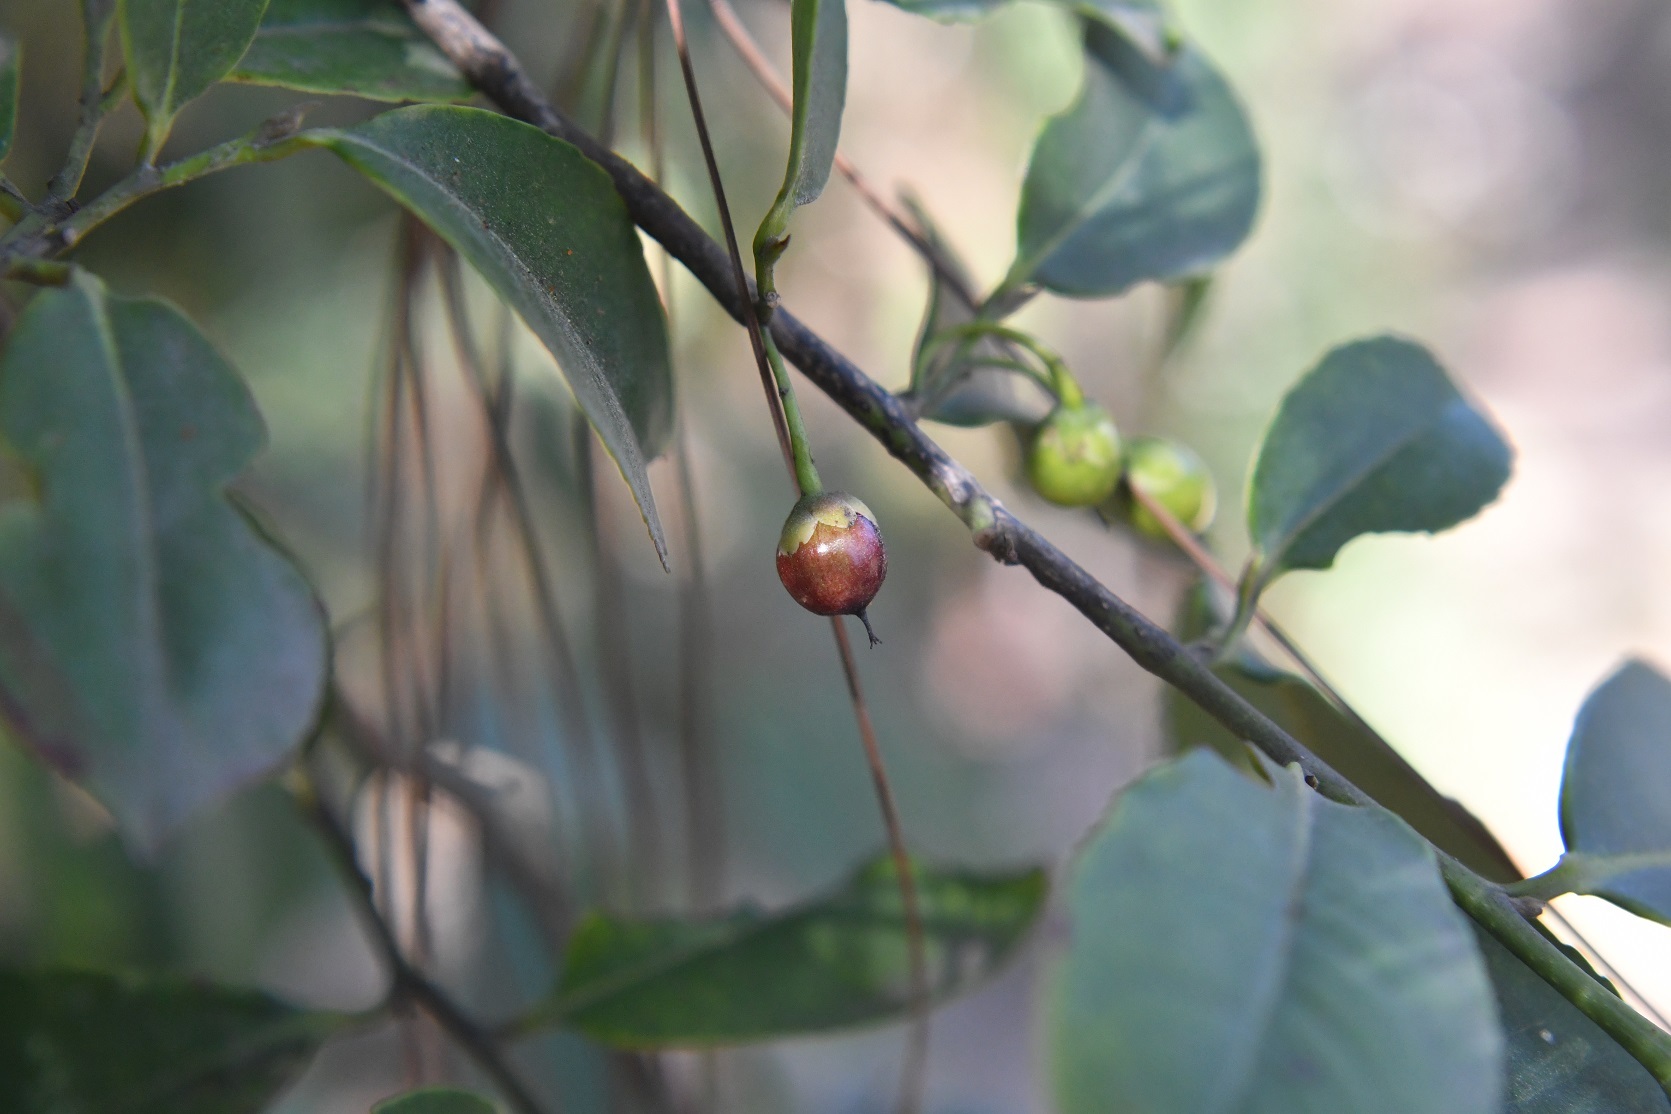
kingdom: Plantae
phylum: Tracheophyta
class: Magnoliopsida
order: Ericales
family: Pentaphylacaceae
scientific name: Pentaphylacaceae
